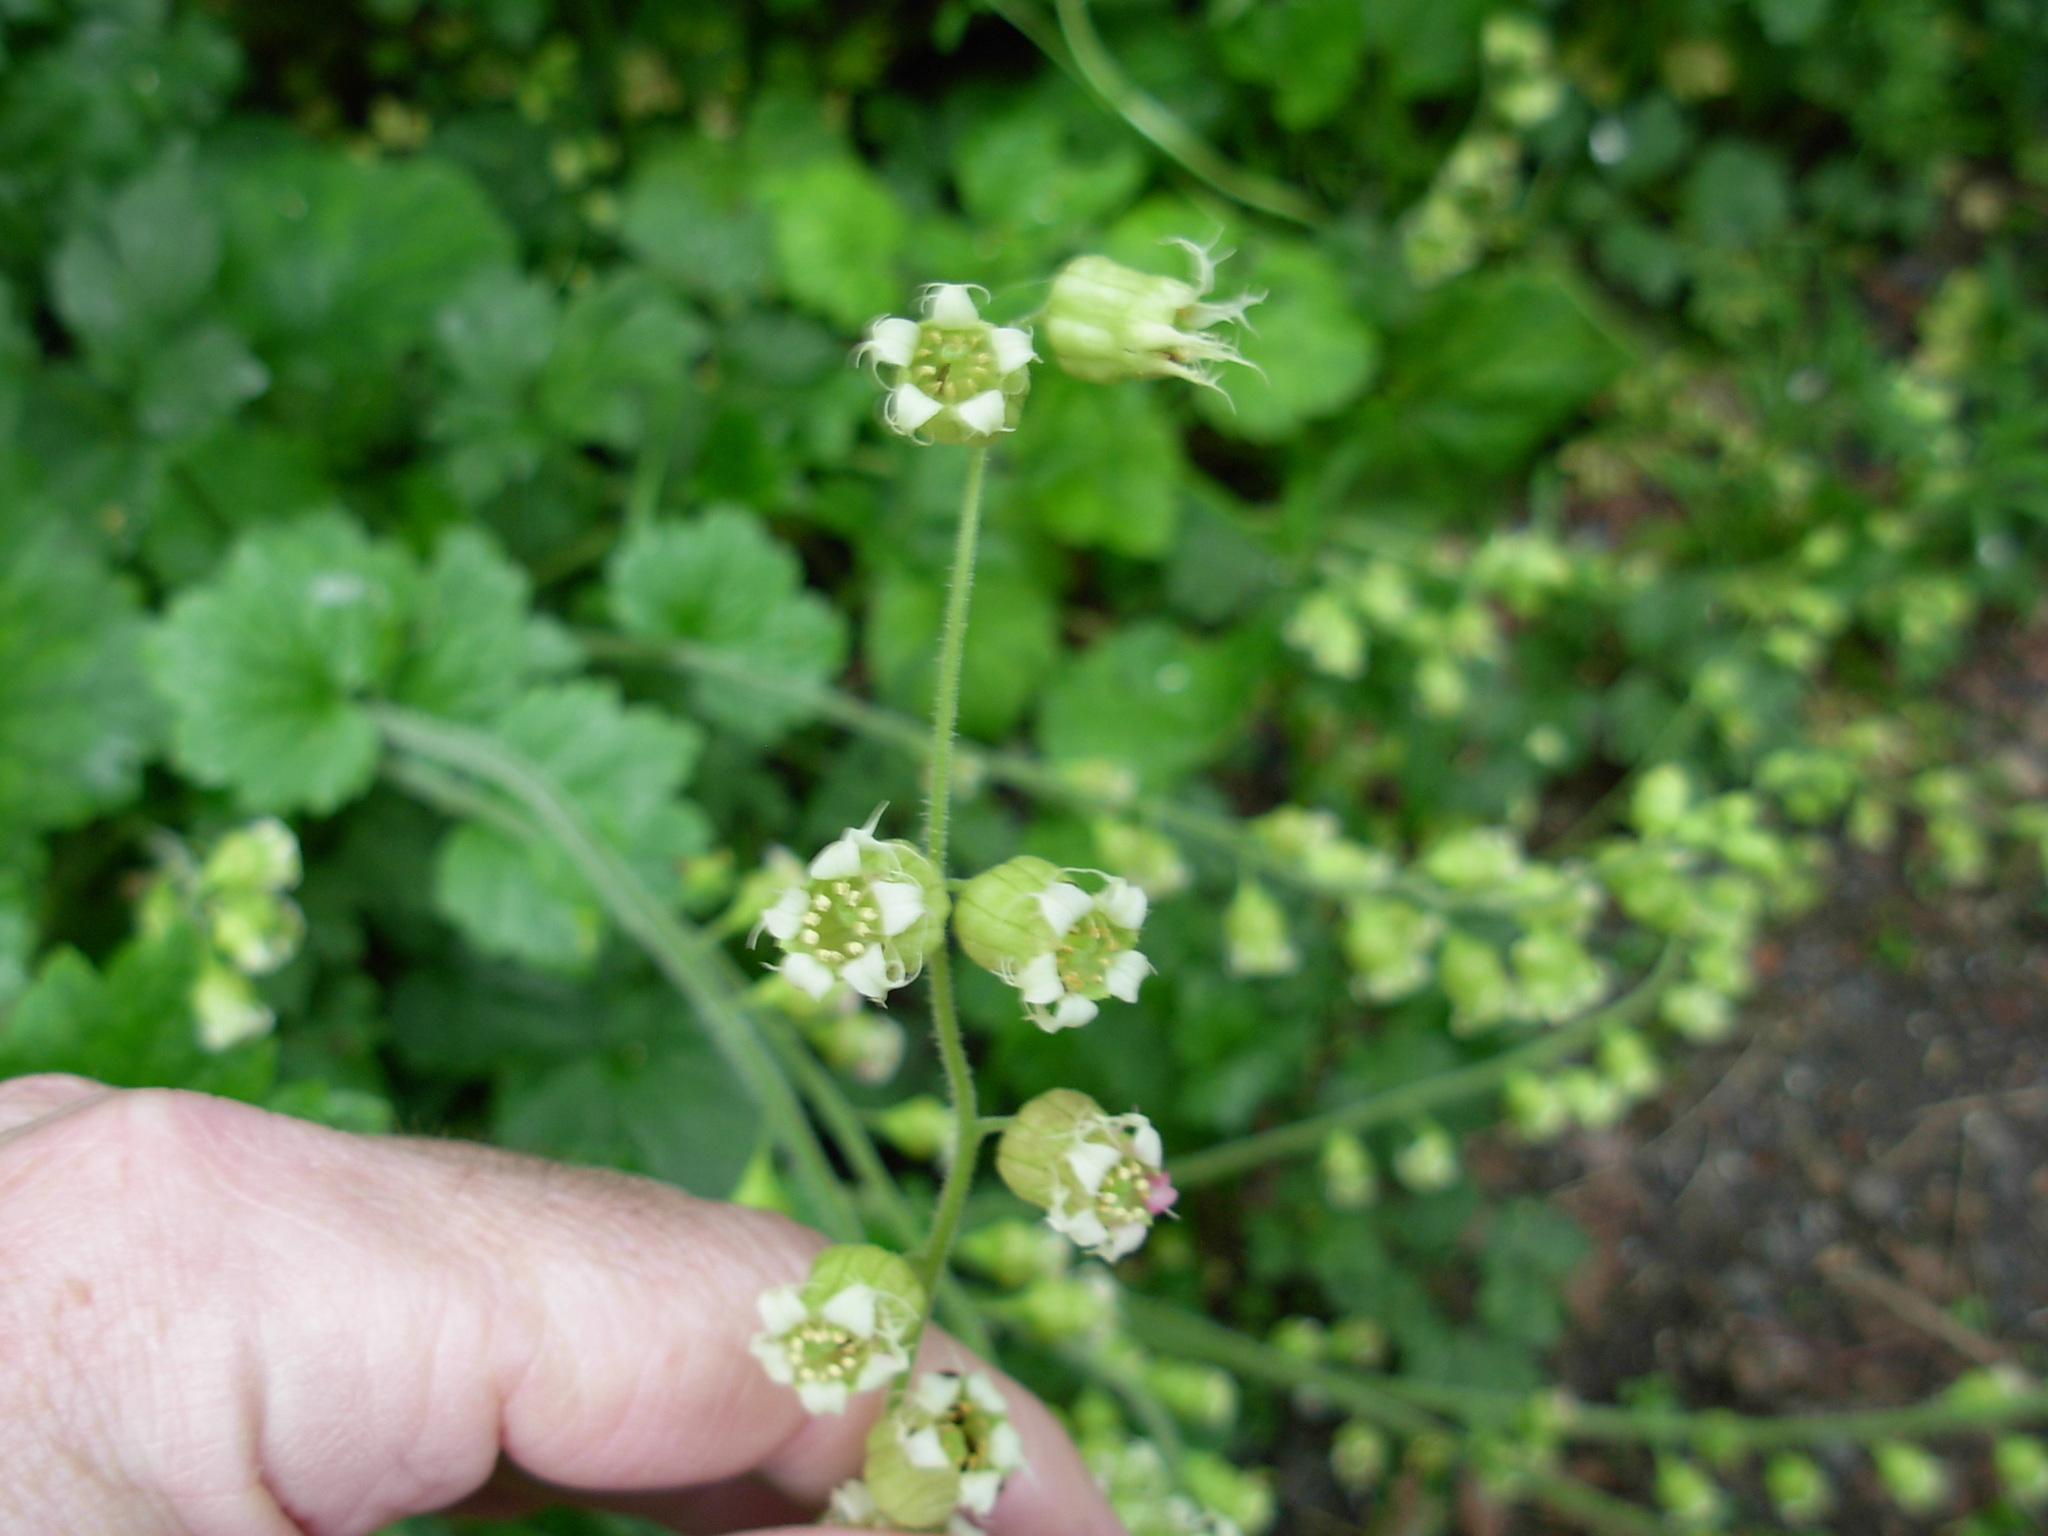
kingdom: Plantae
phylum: Tracheophyta
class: Magnoliopsida
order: Saxifragales
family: Saxifragaceae
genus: Tellima
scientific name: Tellima grandiflora
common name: Fringecups
